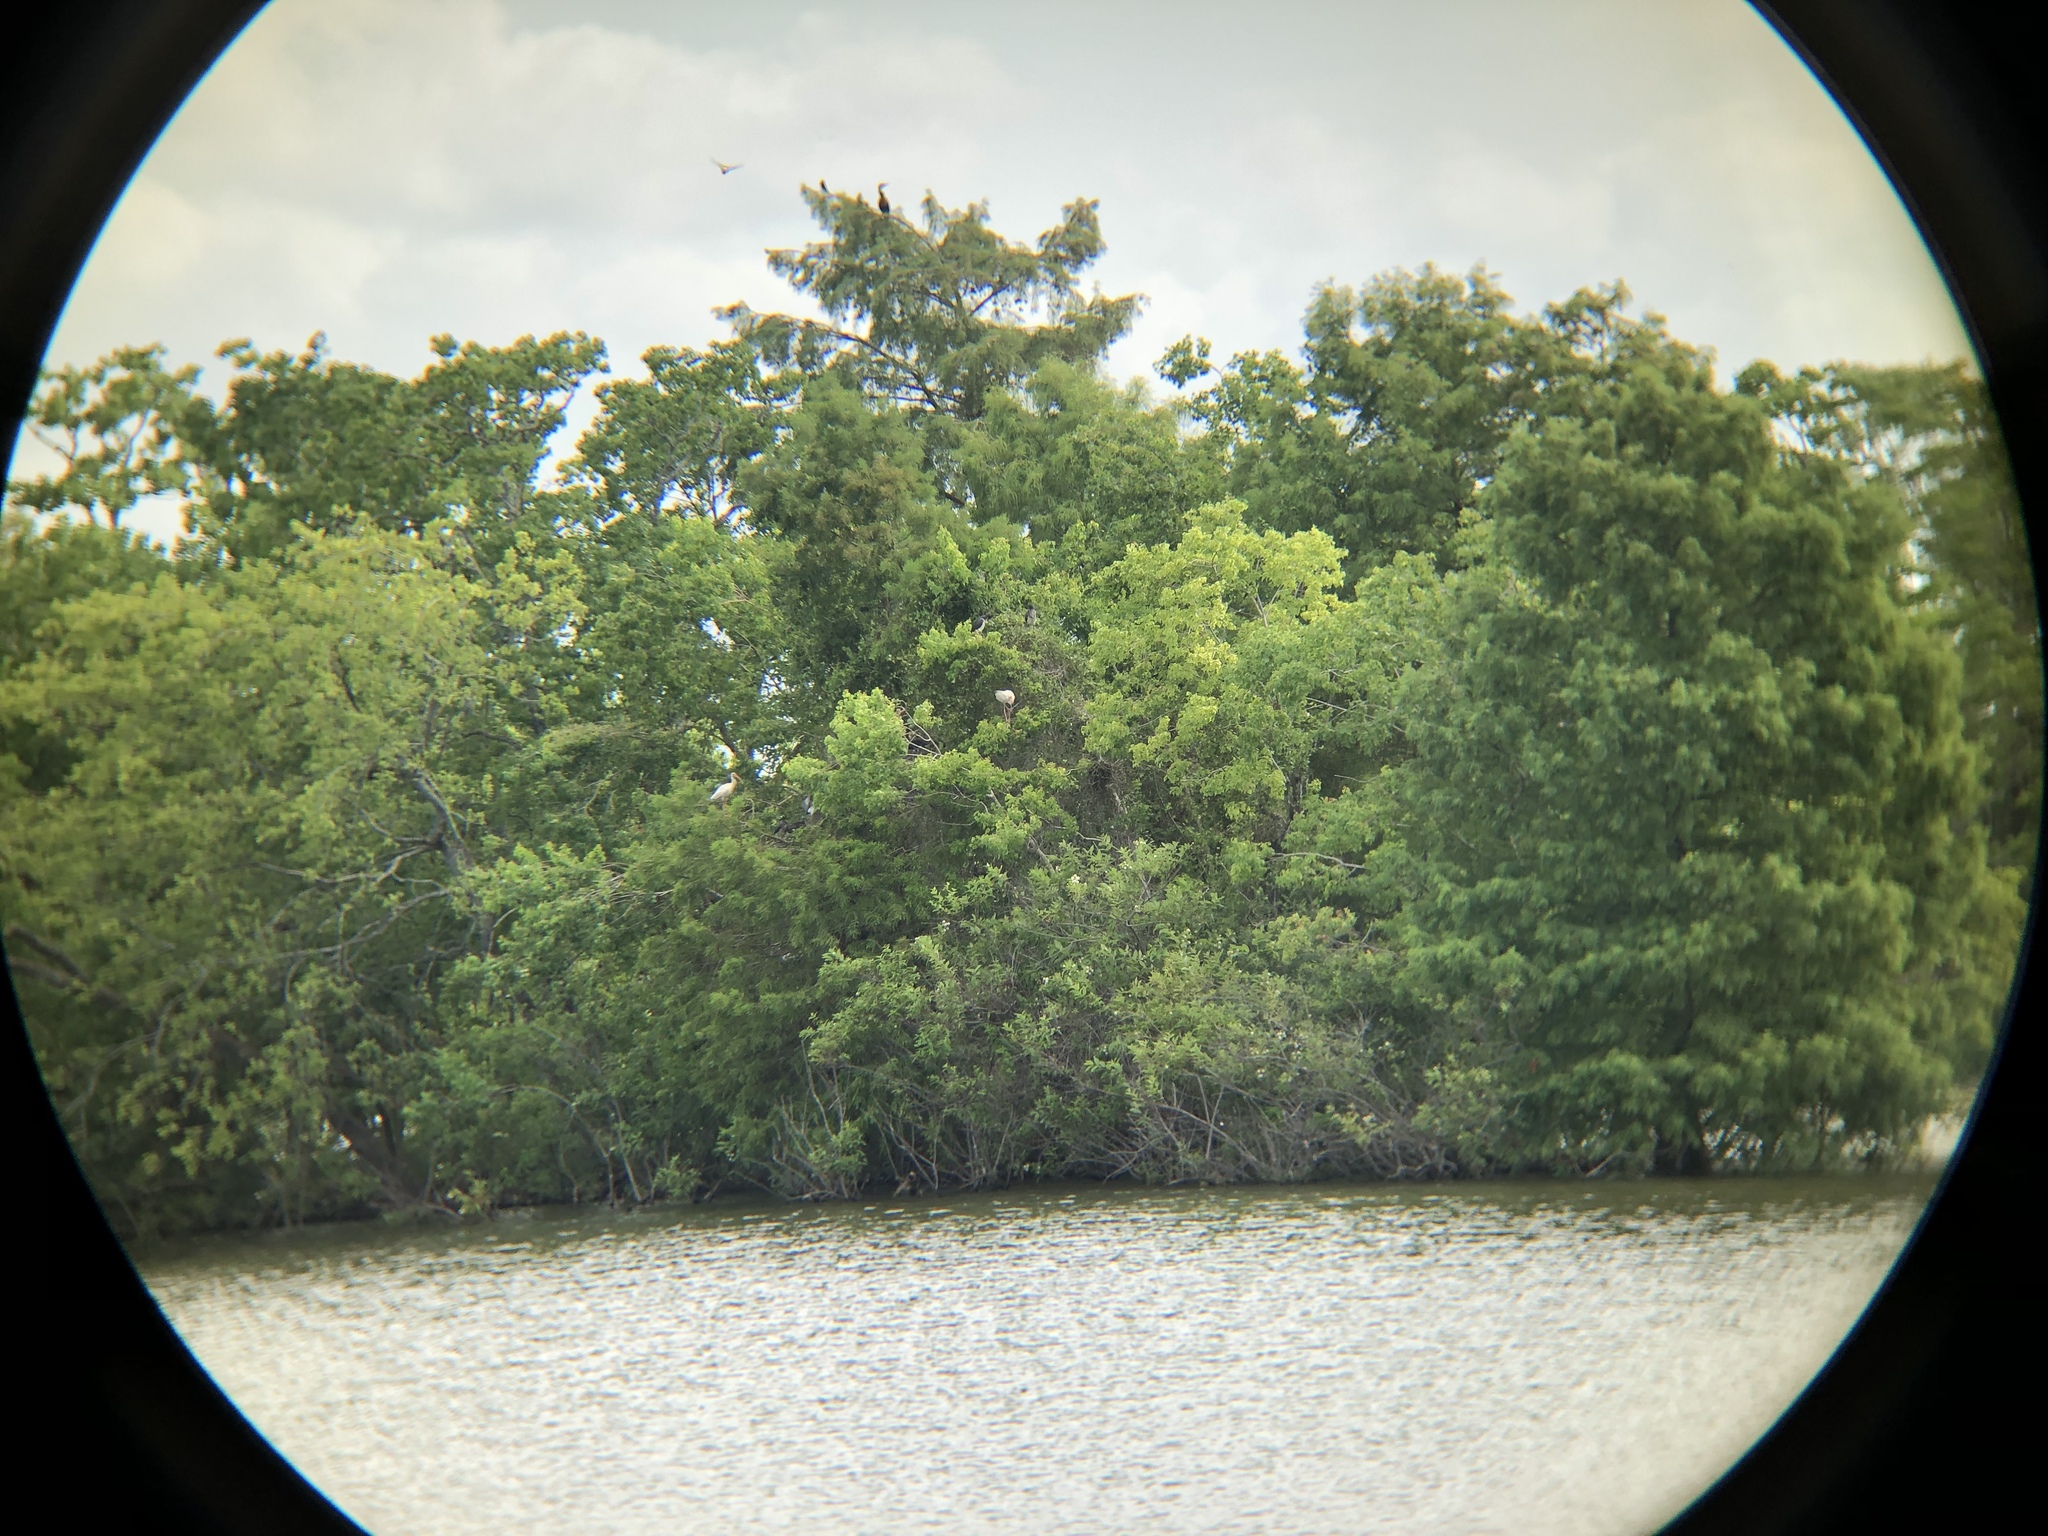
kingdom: Animalia
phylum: Chordata
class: Aves
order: Pelecaniformes
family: Threskiornithidae
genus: Eudocimus
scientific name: Eudocimus albus
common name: White ibis
